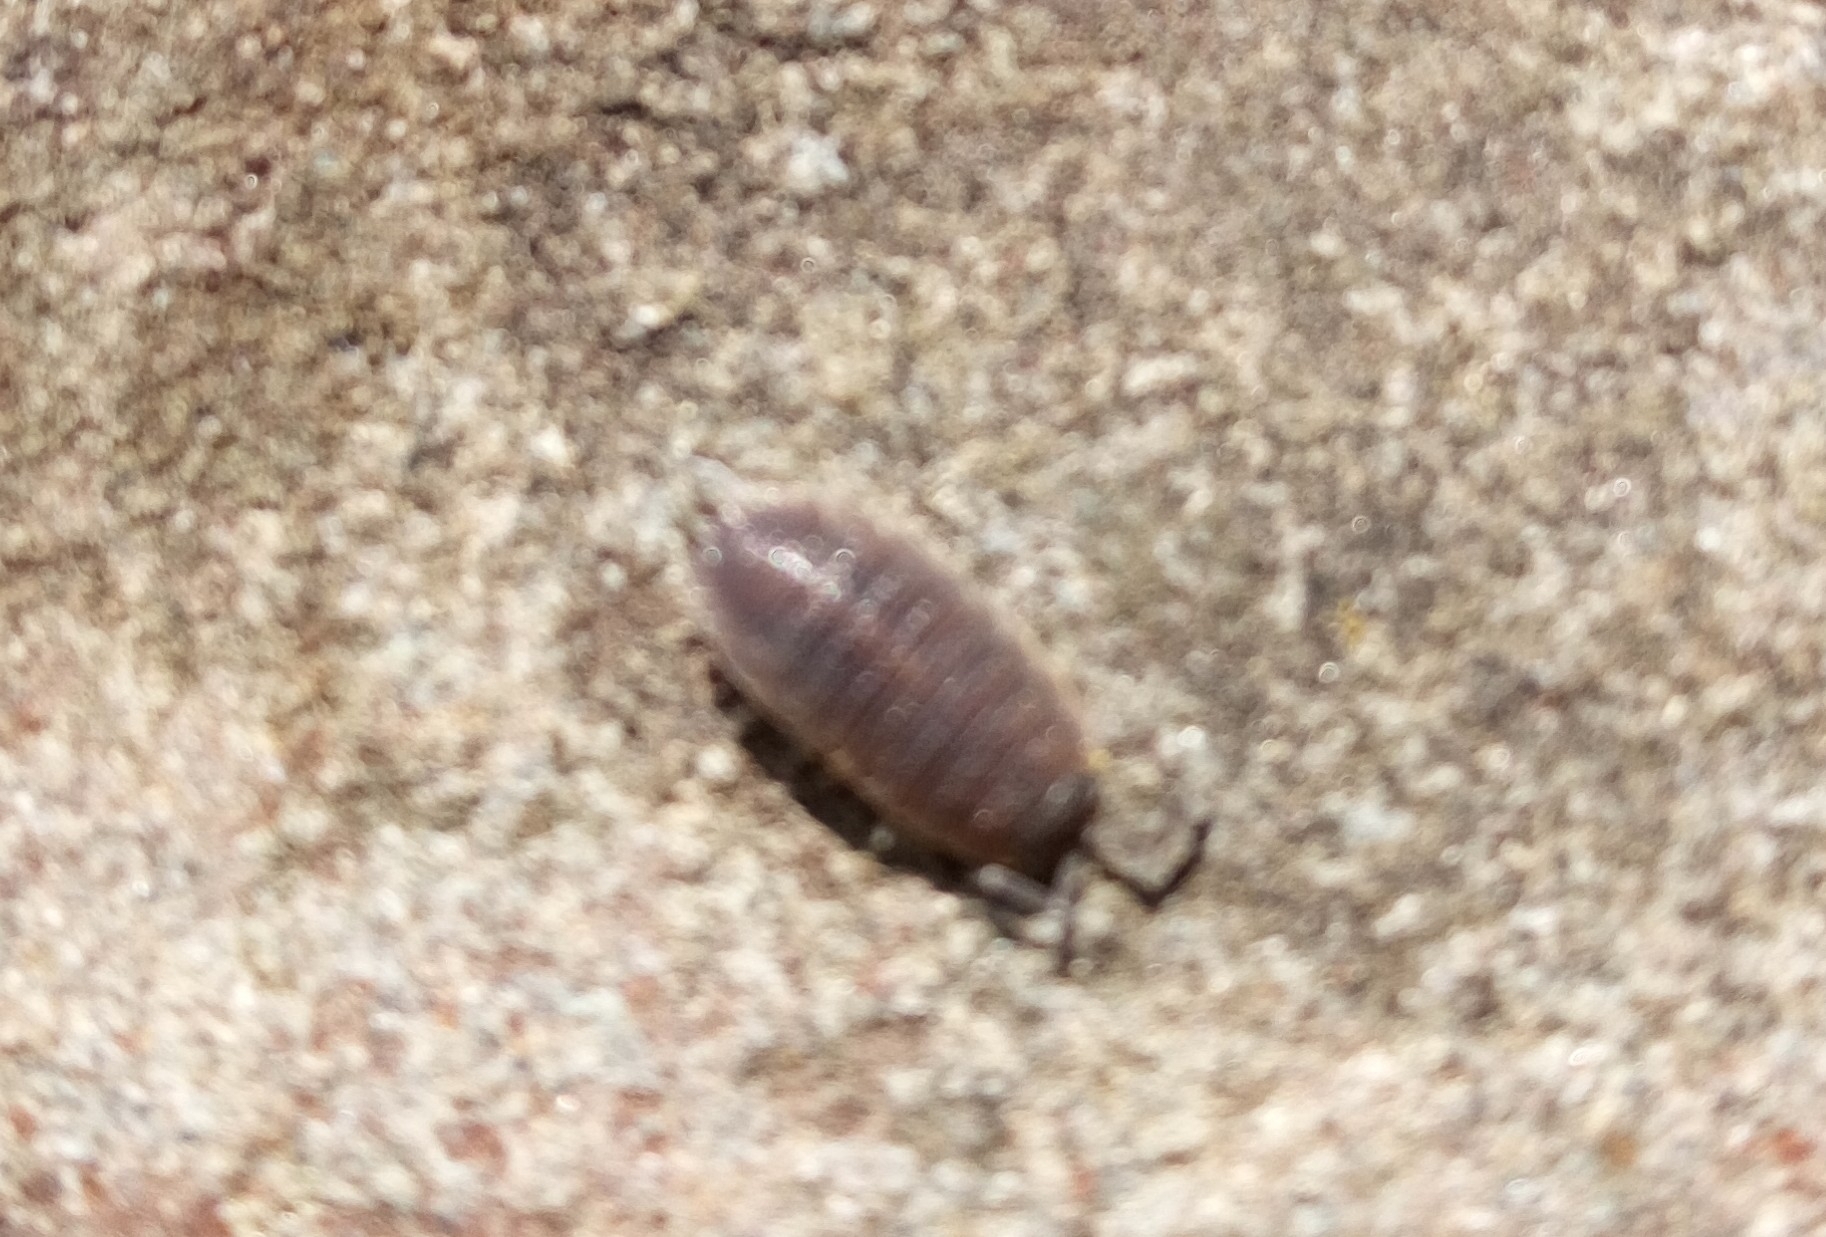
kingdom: Animalia
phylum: Arthropoda
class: Malacostraca
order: Isopoda
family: Porcellionidae
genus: Porcellio
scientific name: Porcellio scaber
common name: Common rough woodlouse
